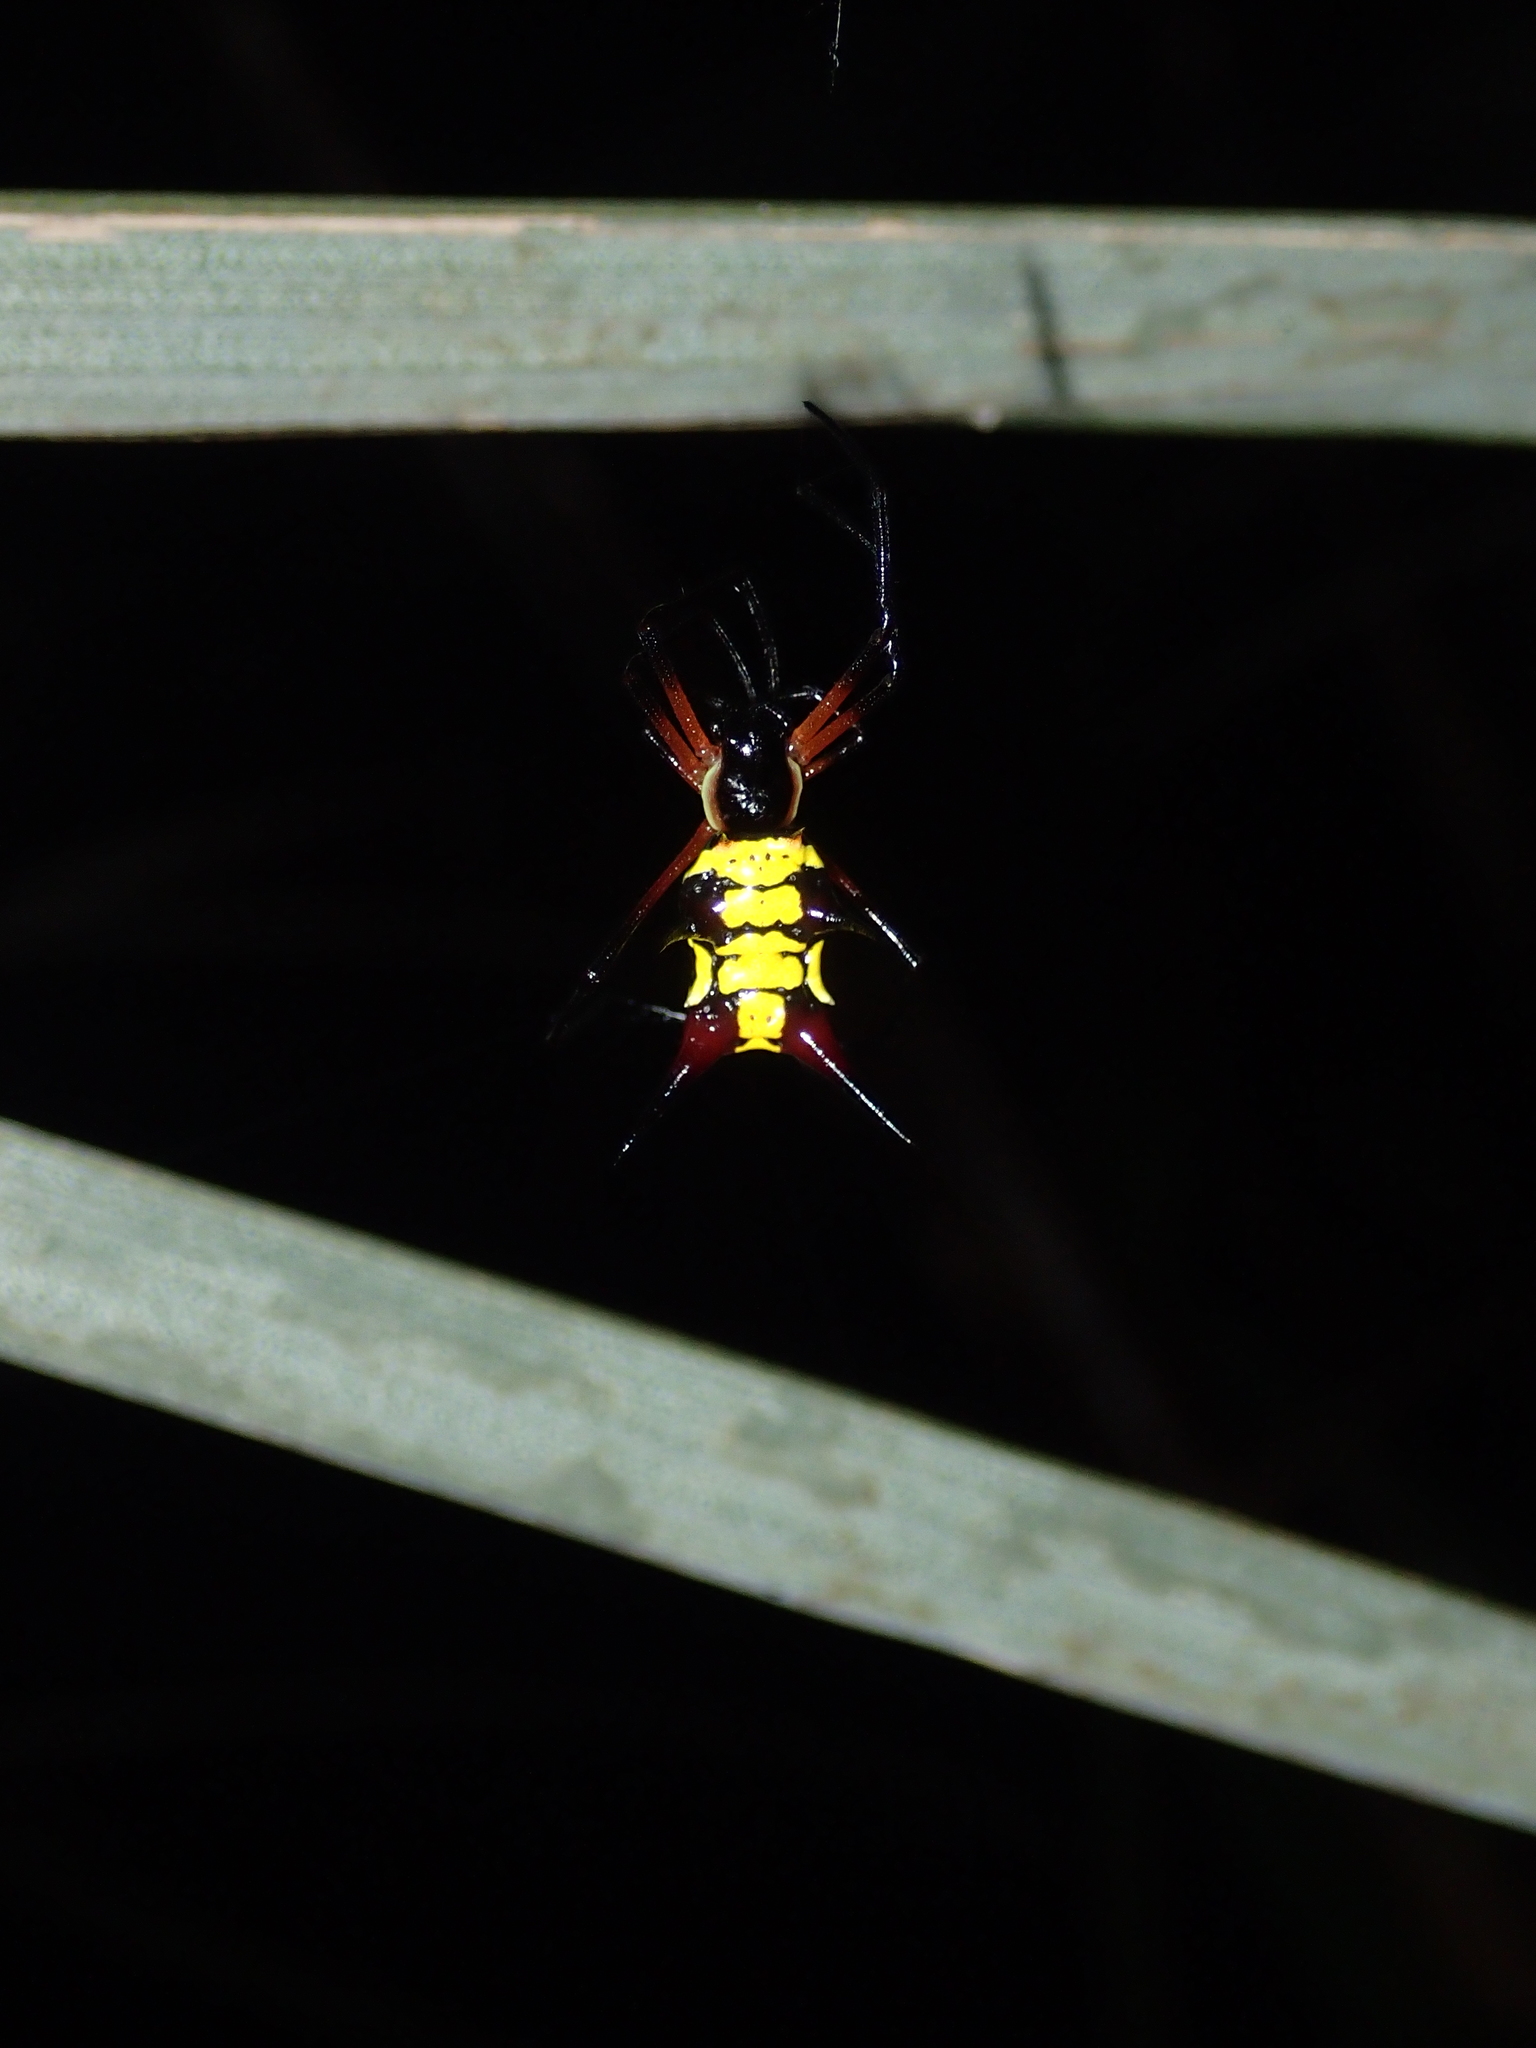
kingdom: Animalia
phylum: Arthropoda
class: Arachnida
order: Araneae
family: Araneidae
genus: Micrathena
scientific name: Micrathena kirbyi
